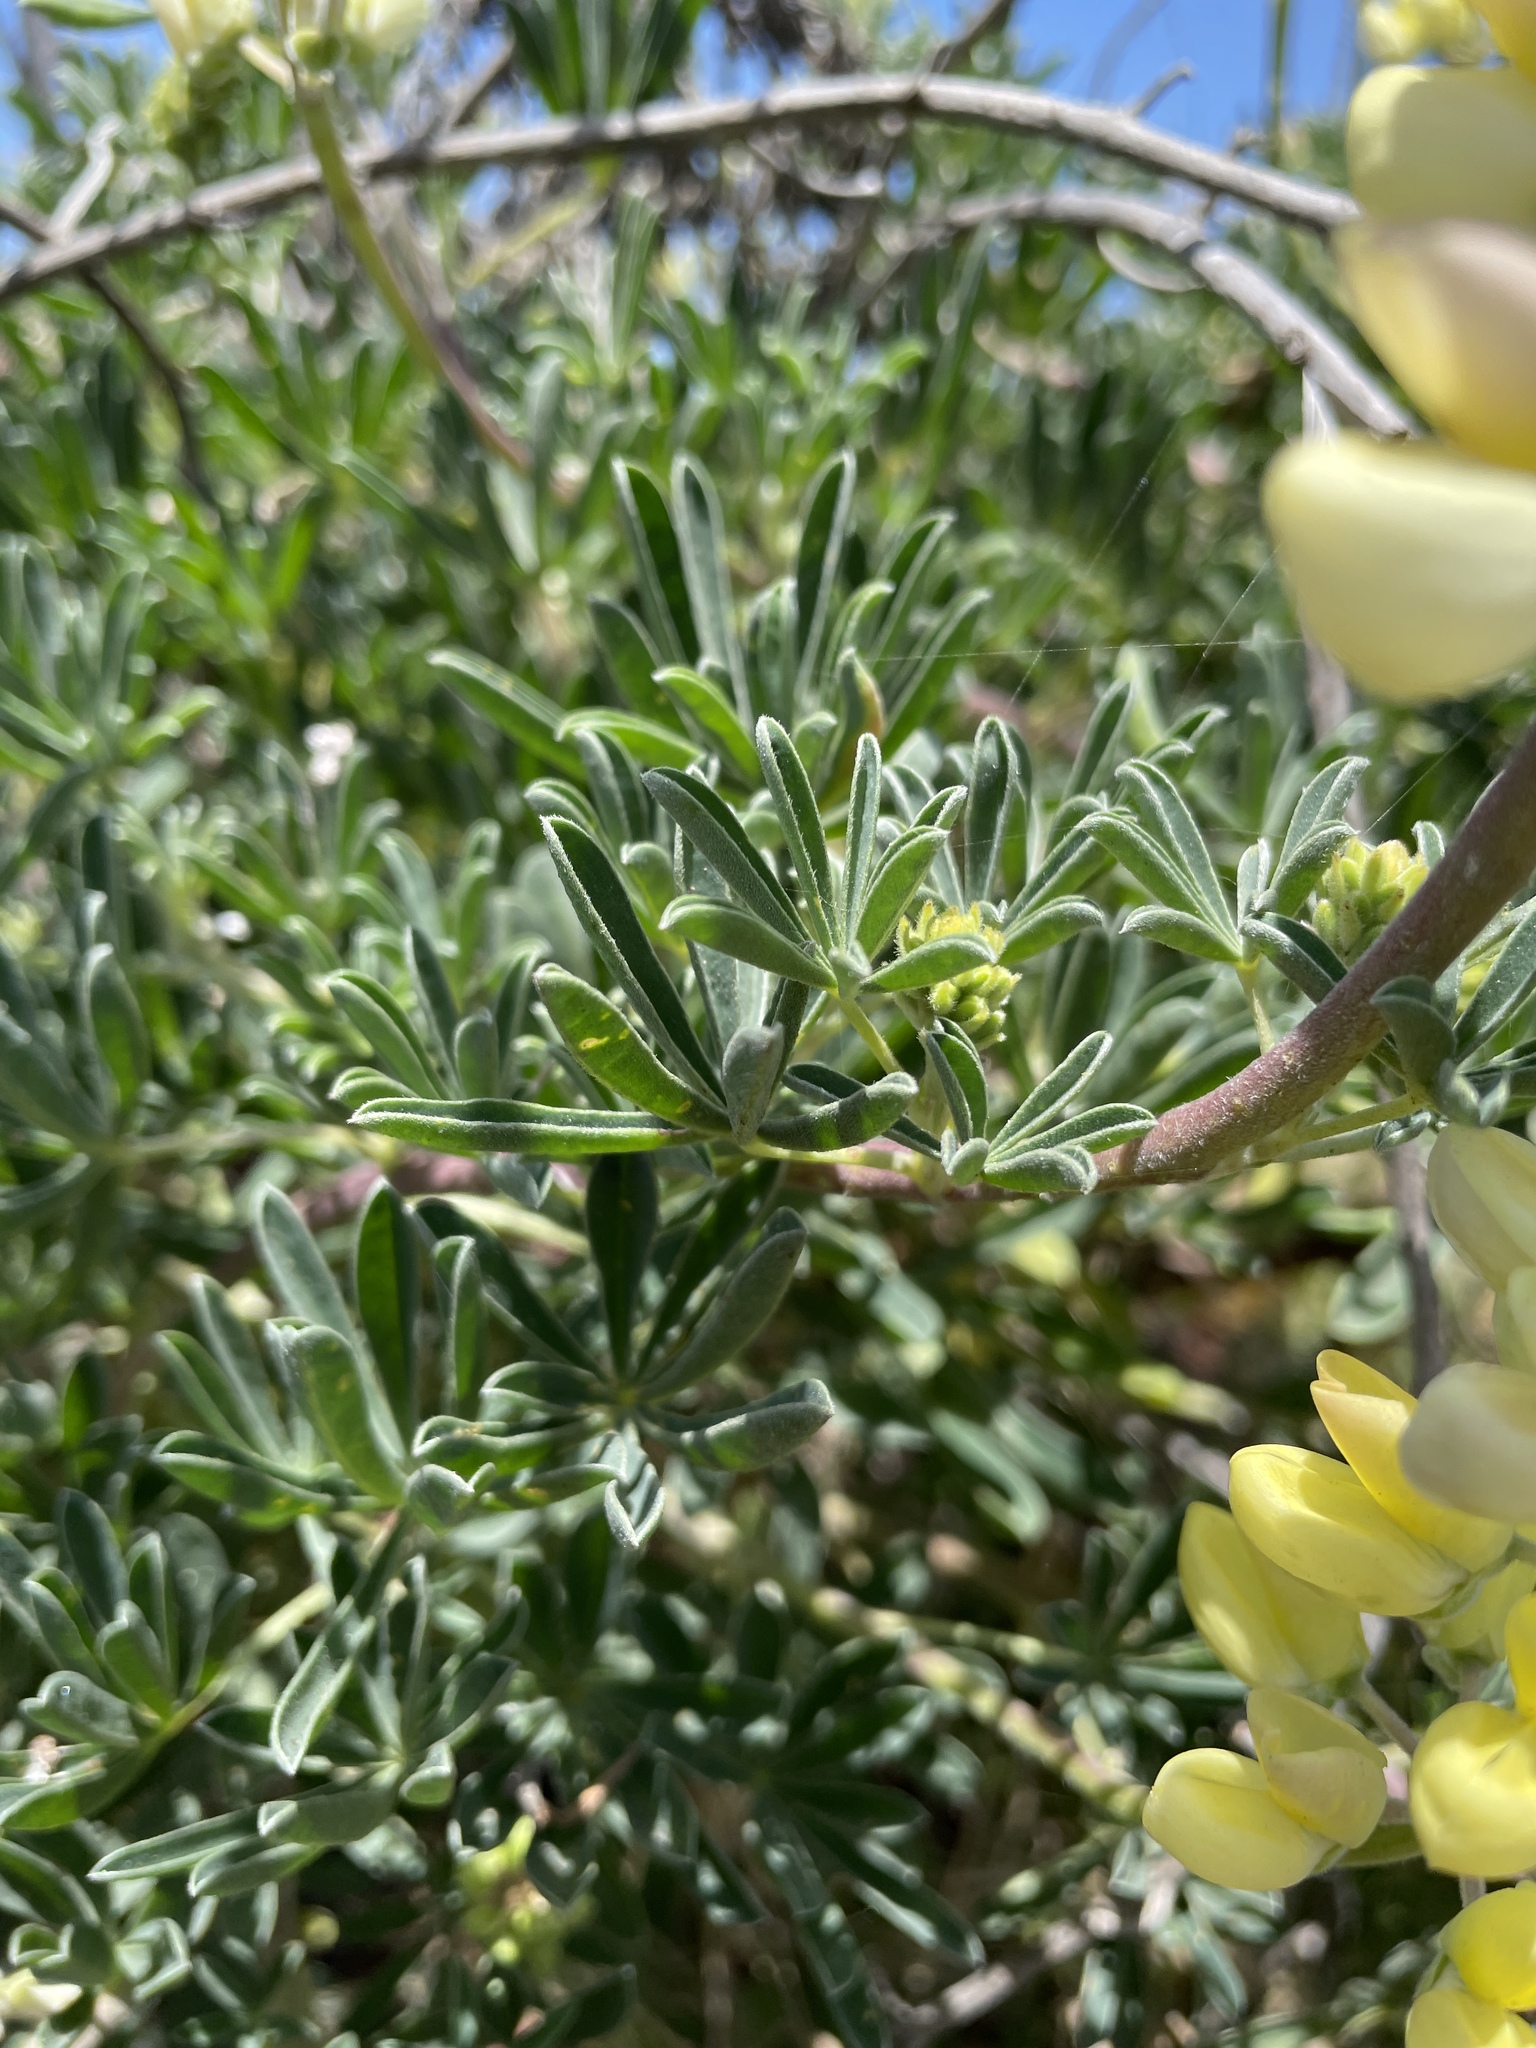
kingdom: Plantae
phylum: Tracheophyta
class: Magnoliopsida
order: Fabales
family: Fabaceae
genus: Lupinus
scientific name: Lupinus arboreus
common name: Yellow bush lupine
